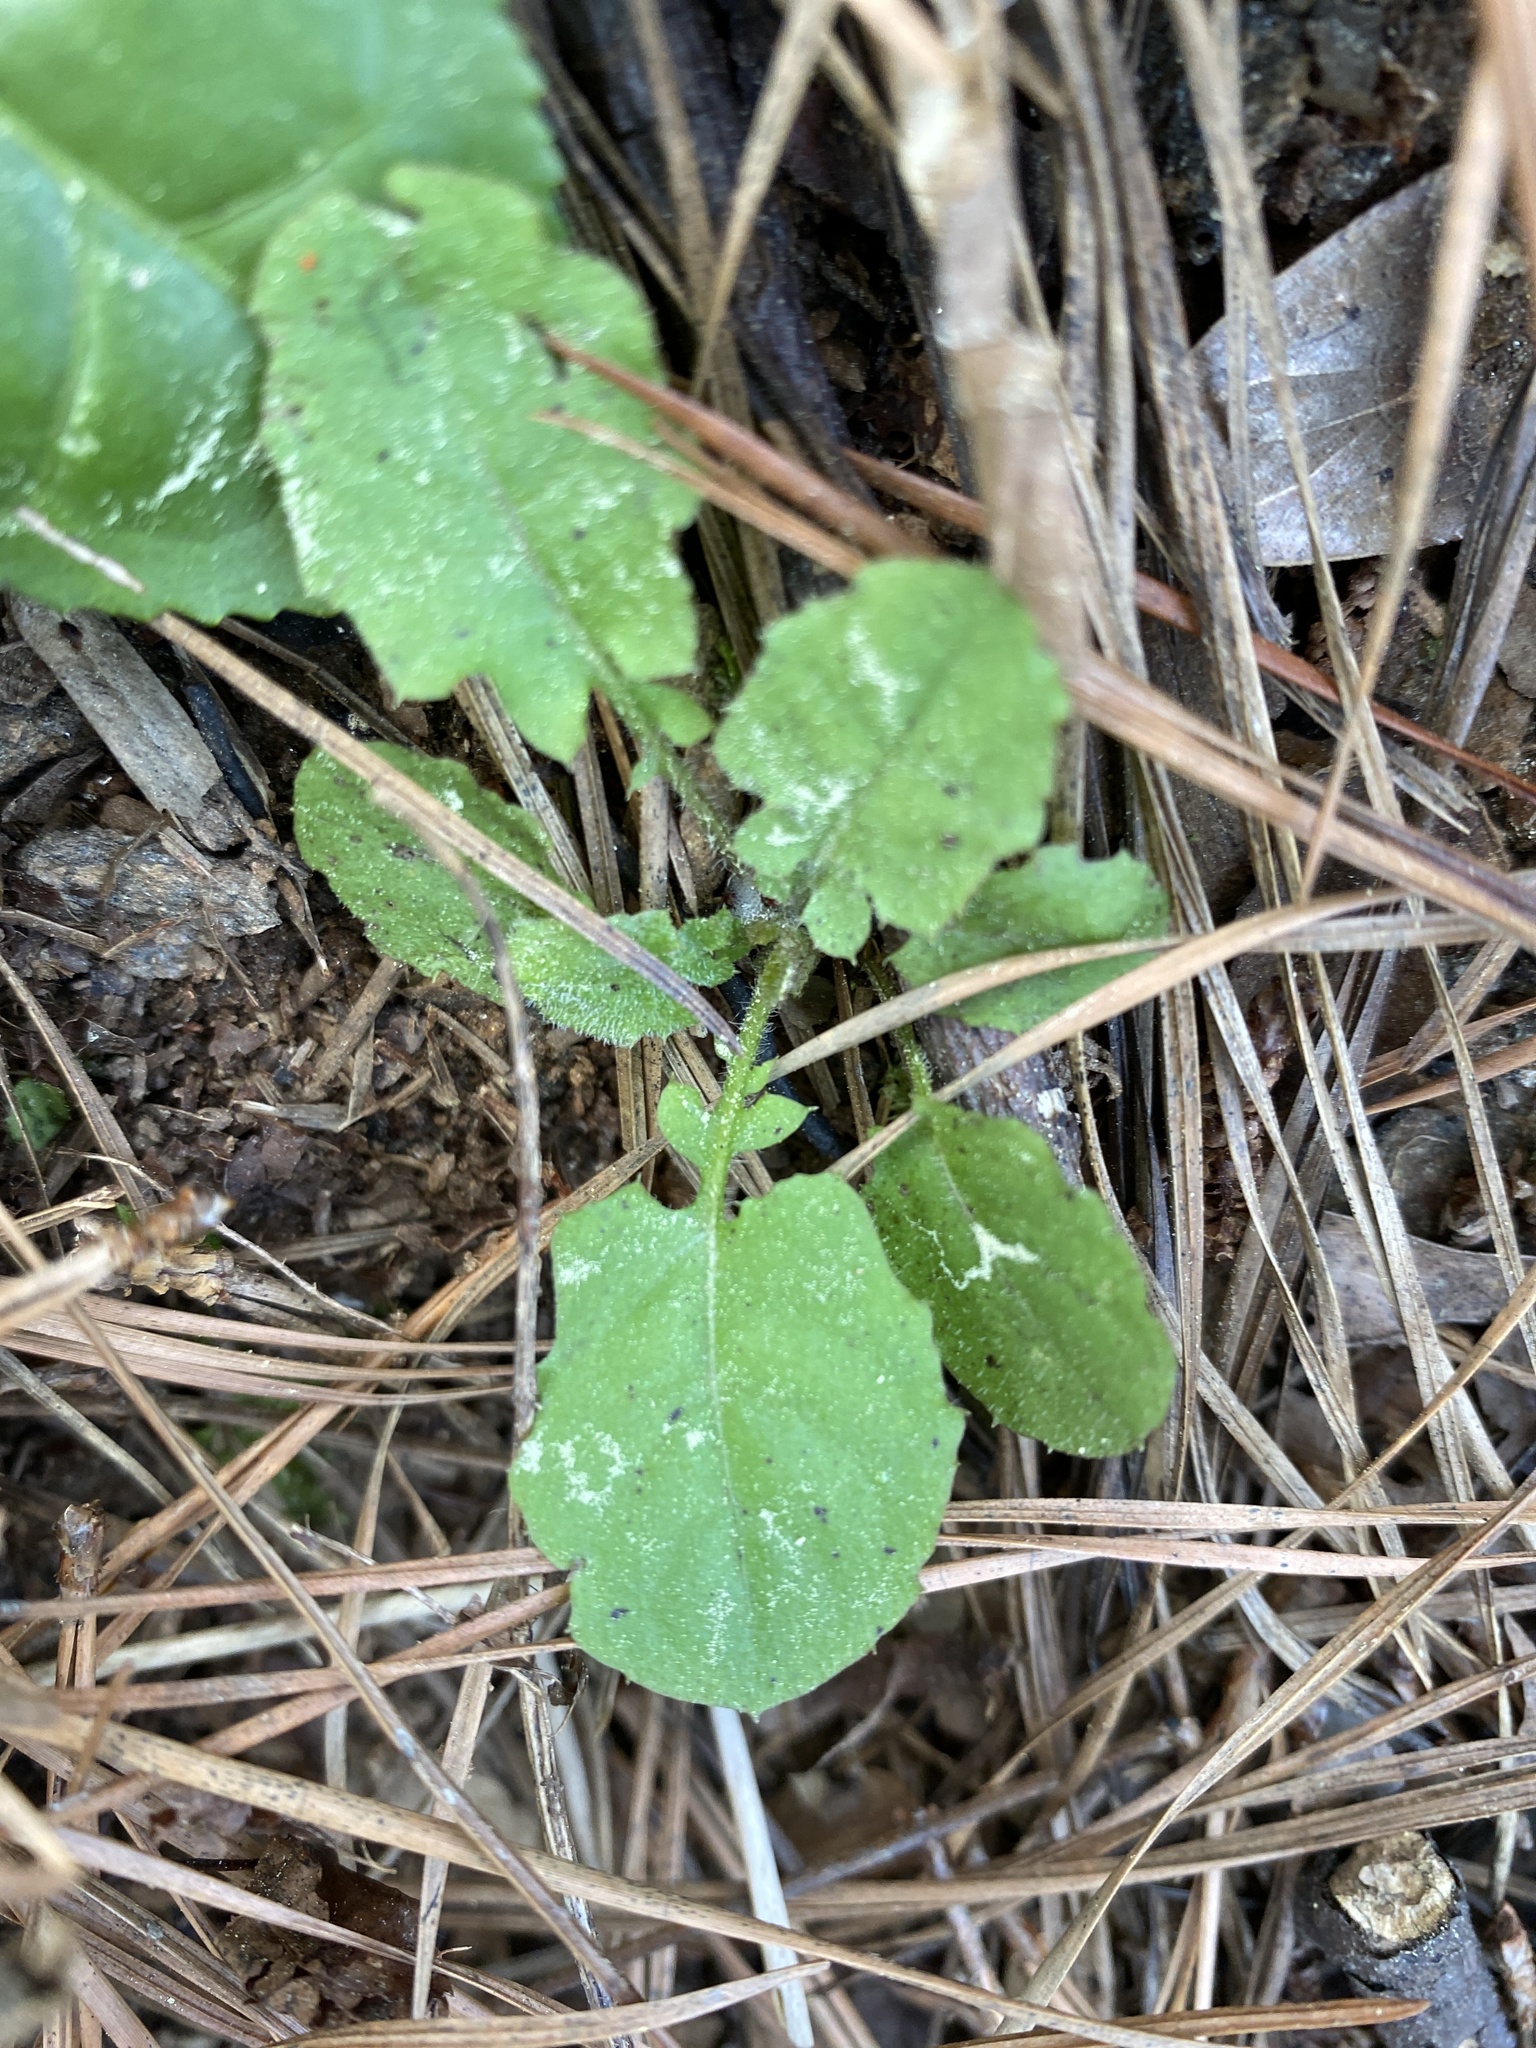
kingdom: Plantae
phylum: Tracheophyta
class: Magnoliopsida
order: Asterales
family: Asteraceae
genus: Youngia
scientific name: Youngia japonica
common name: Oriental false hawksbeard
